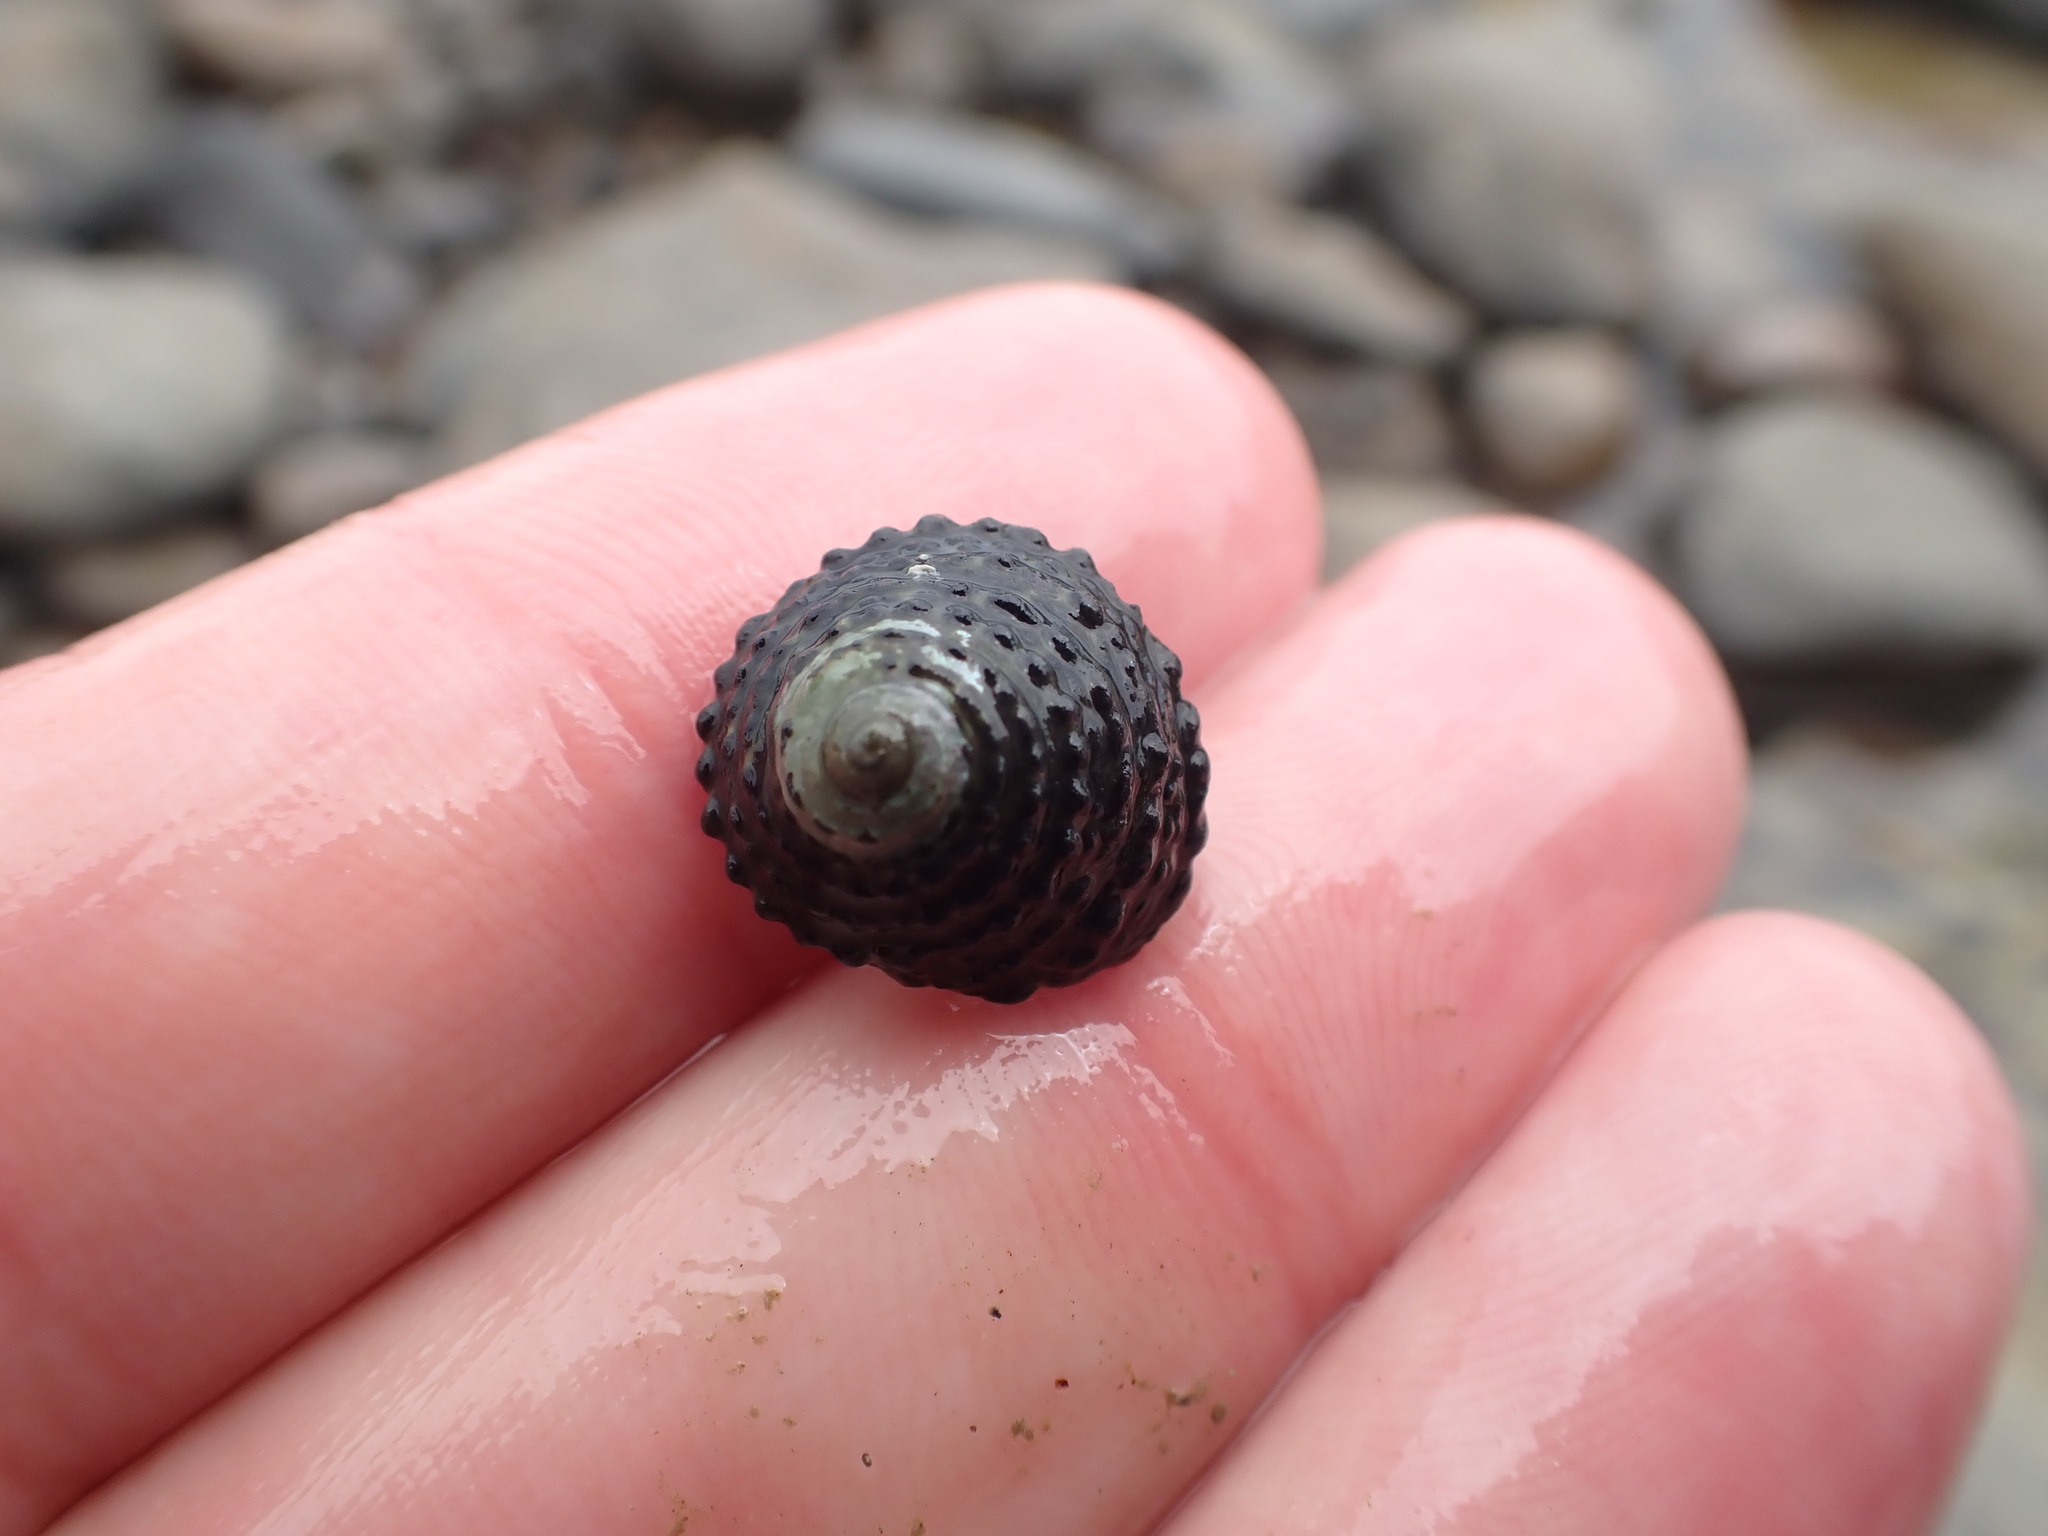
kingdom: Animalia
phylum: Mollusca
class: Gastropoda
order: Trochida
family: Trochidae
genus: Diloma
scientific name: Diloma bicanaliculatum
